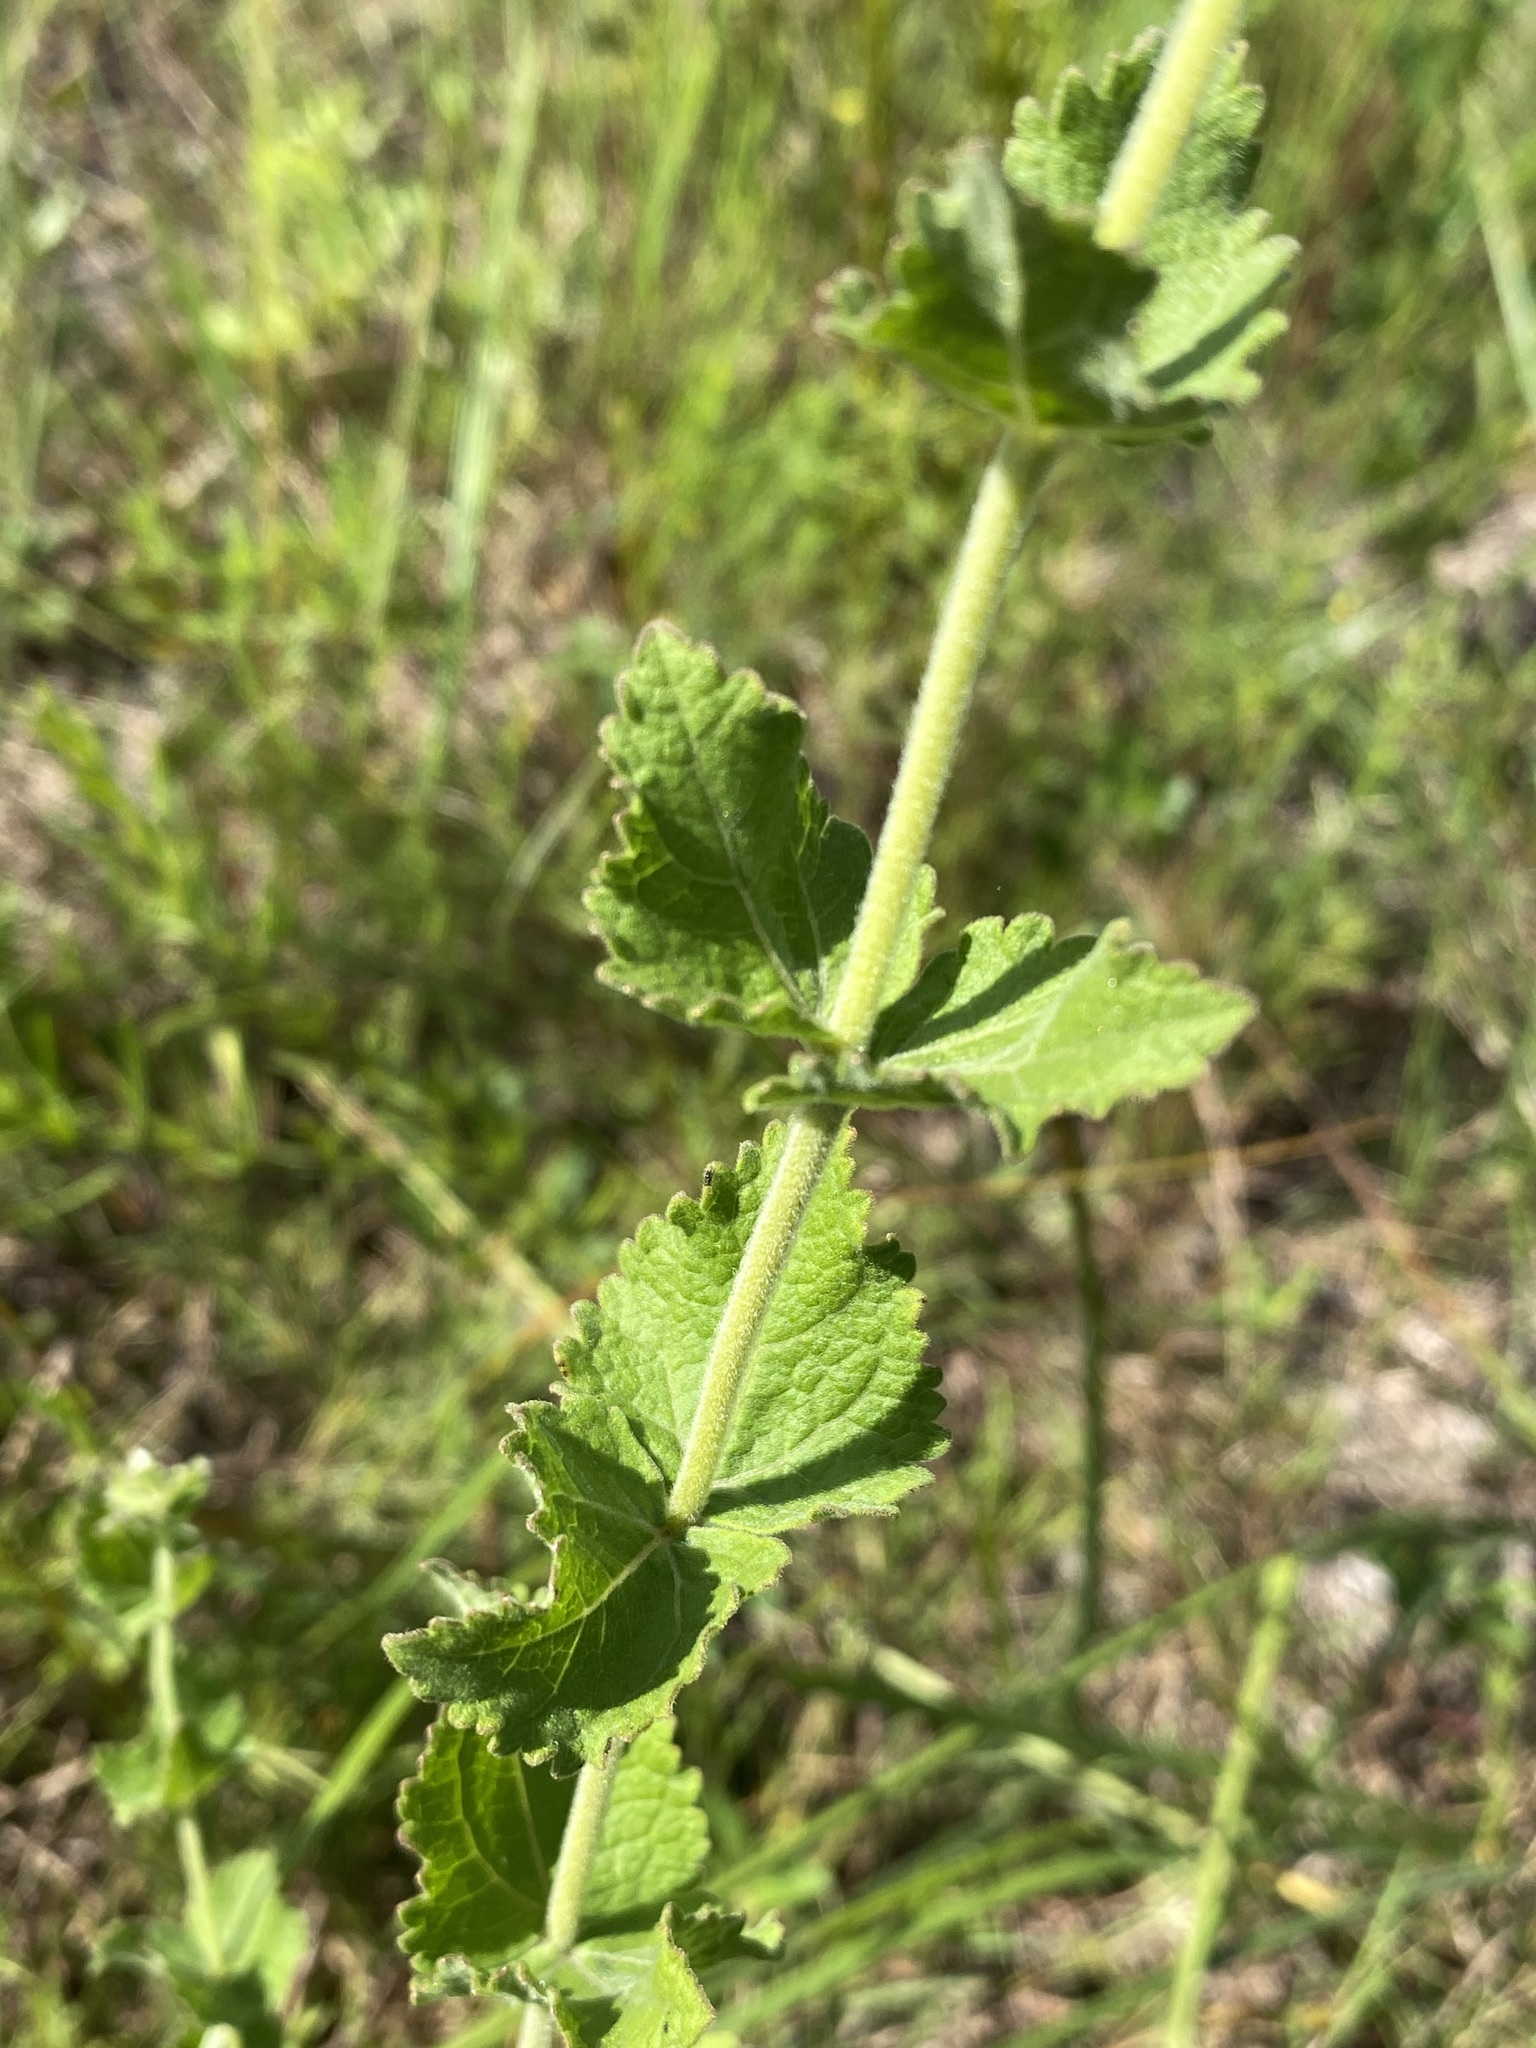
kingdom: Plantae
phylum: Tracheophyta
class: Magnoliopsida
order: Asterales
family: Asteraceae
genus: Eupatorium
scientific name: Eupatorium rotundifolium
